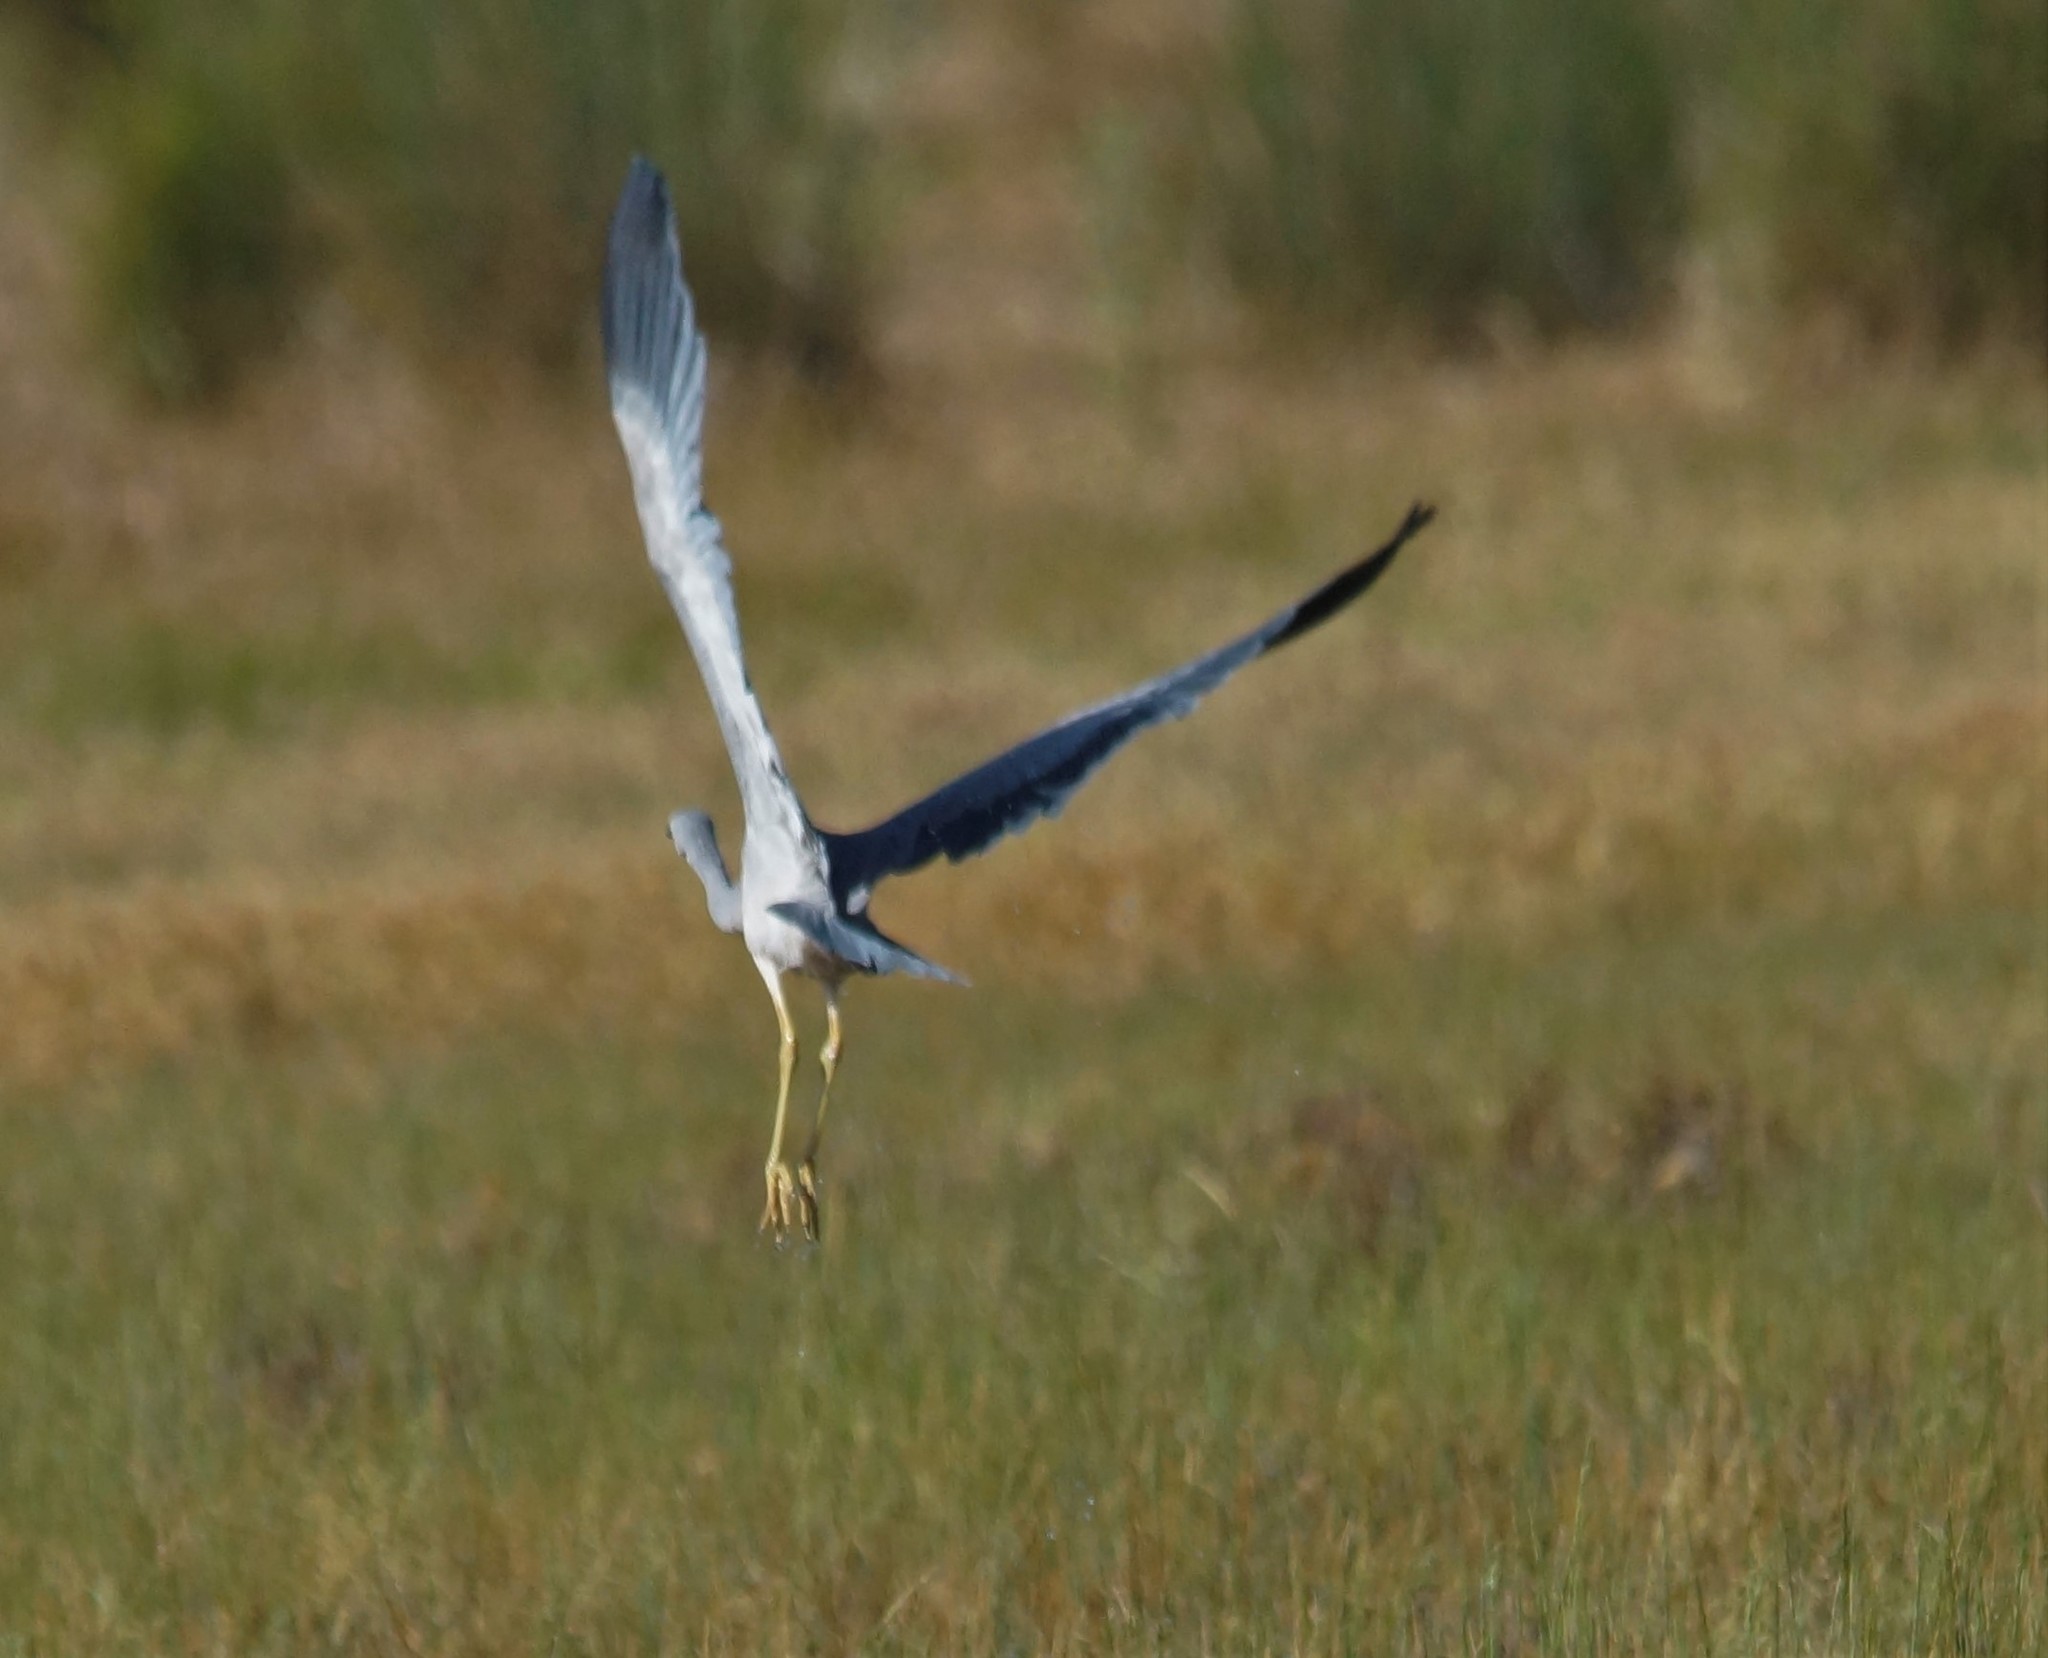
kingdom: Animalia
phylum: Chordata
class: Aves
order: Pelecaniformes
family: Ardeidae
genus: Egretta
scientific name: Egretta novaehollandiae
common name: White-faced heron
